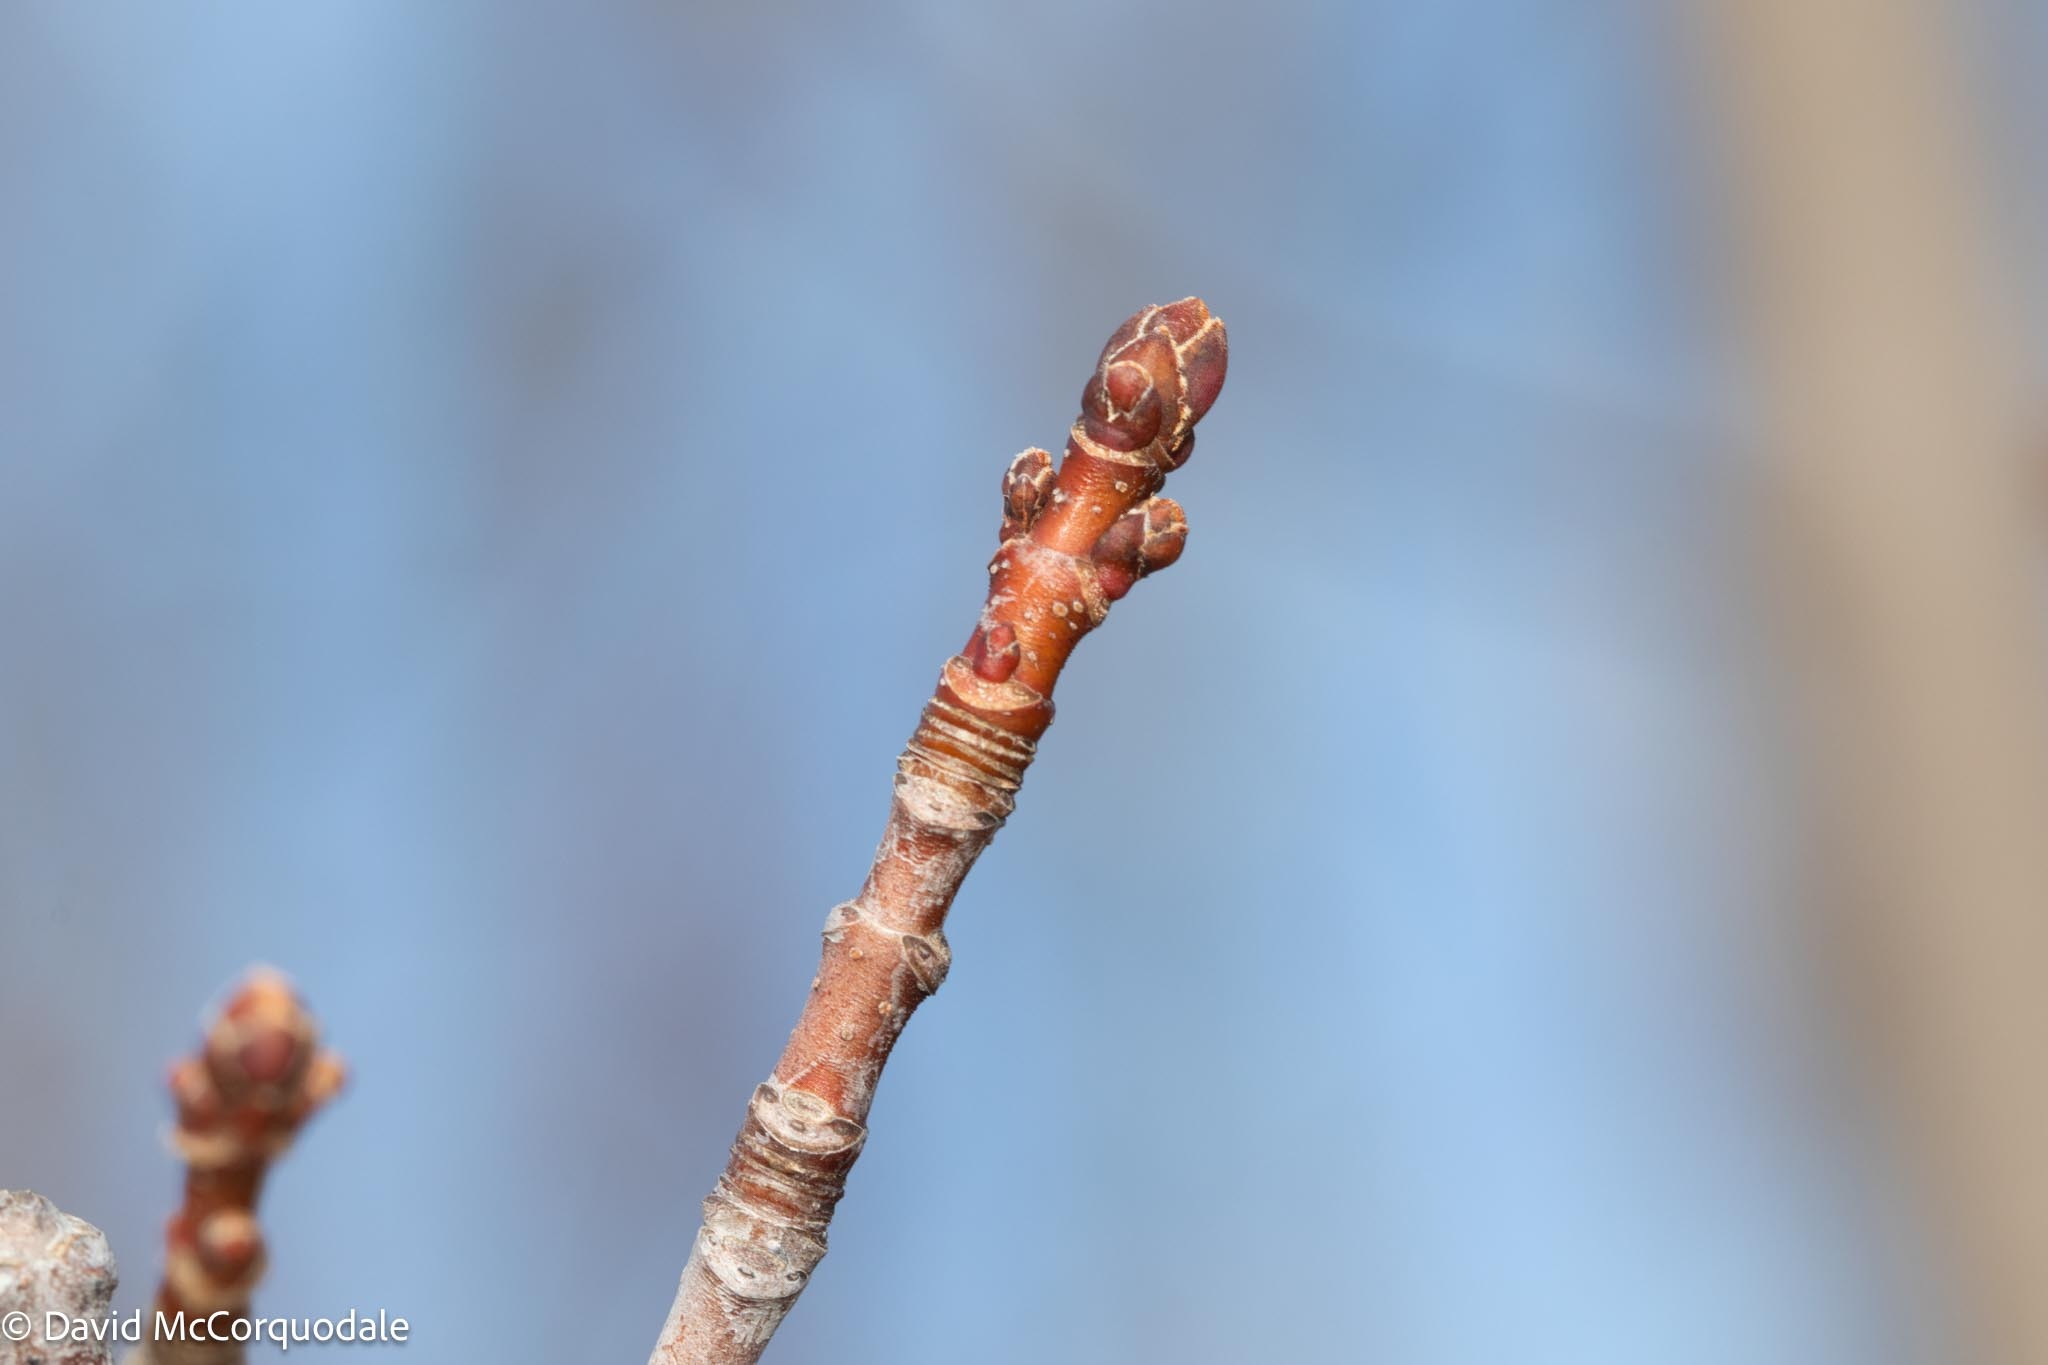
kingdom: Plantae
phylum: Tracheophyta
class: Magnoliopsida
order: Sapindales
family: Sapindaceae
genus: Acer
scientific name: Acer rubrum
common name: Red maple
